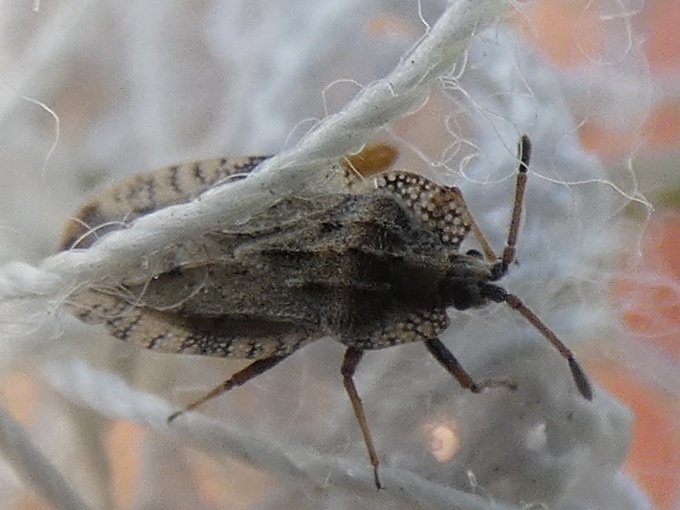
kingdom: Animalia
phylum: Arthropoda
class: Insecta
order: Hemiptera
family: Tingidae
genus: Tingis
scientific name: Tingis ampliata
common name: Creeping thistle lacebug
